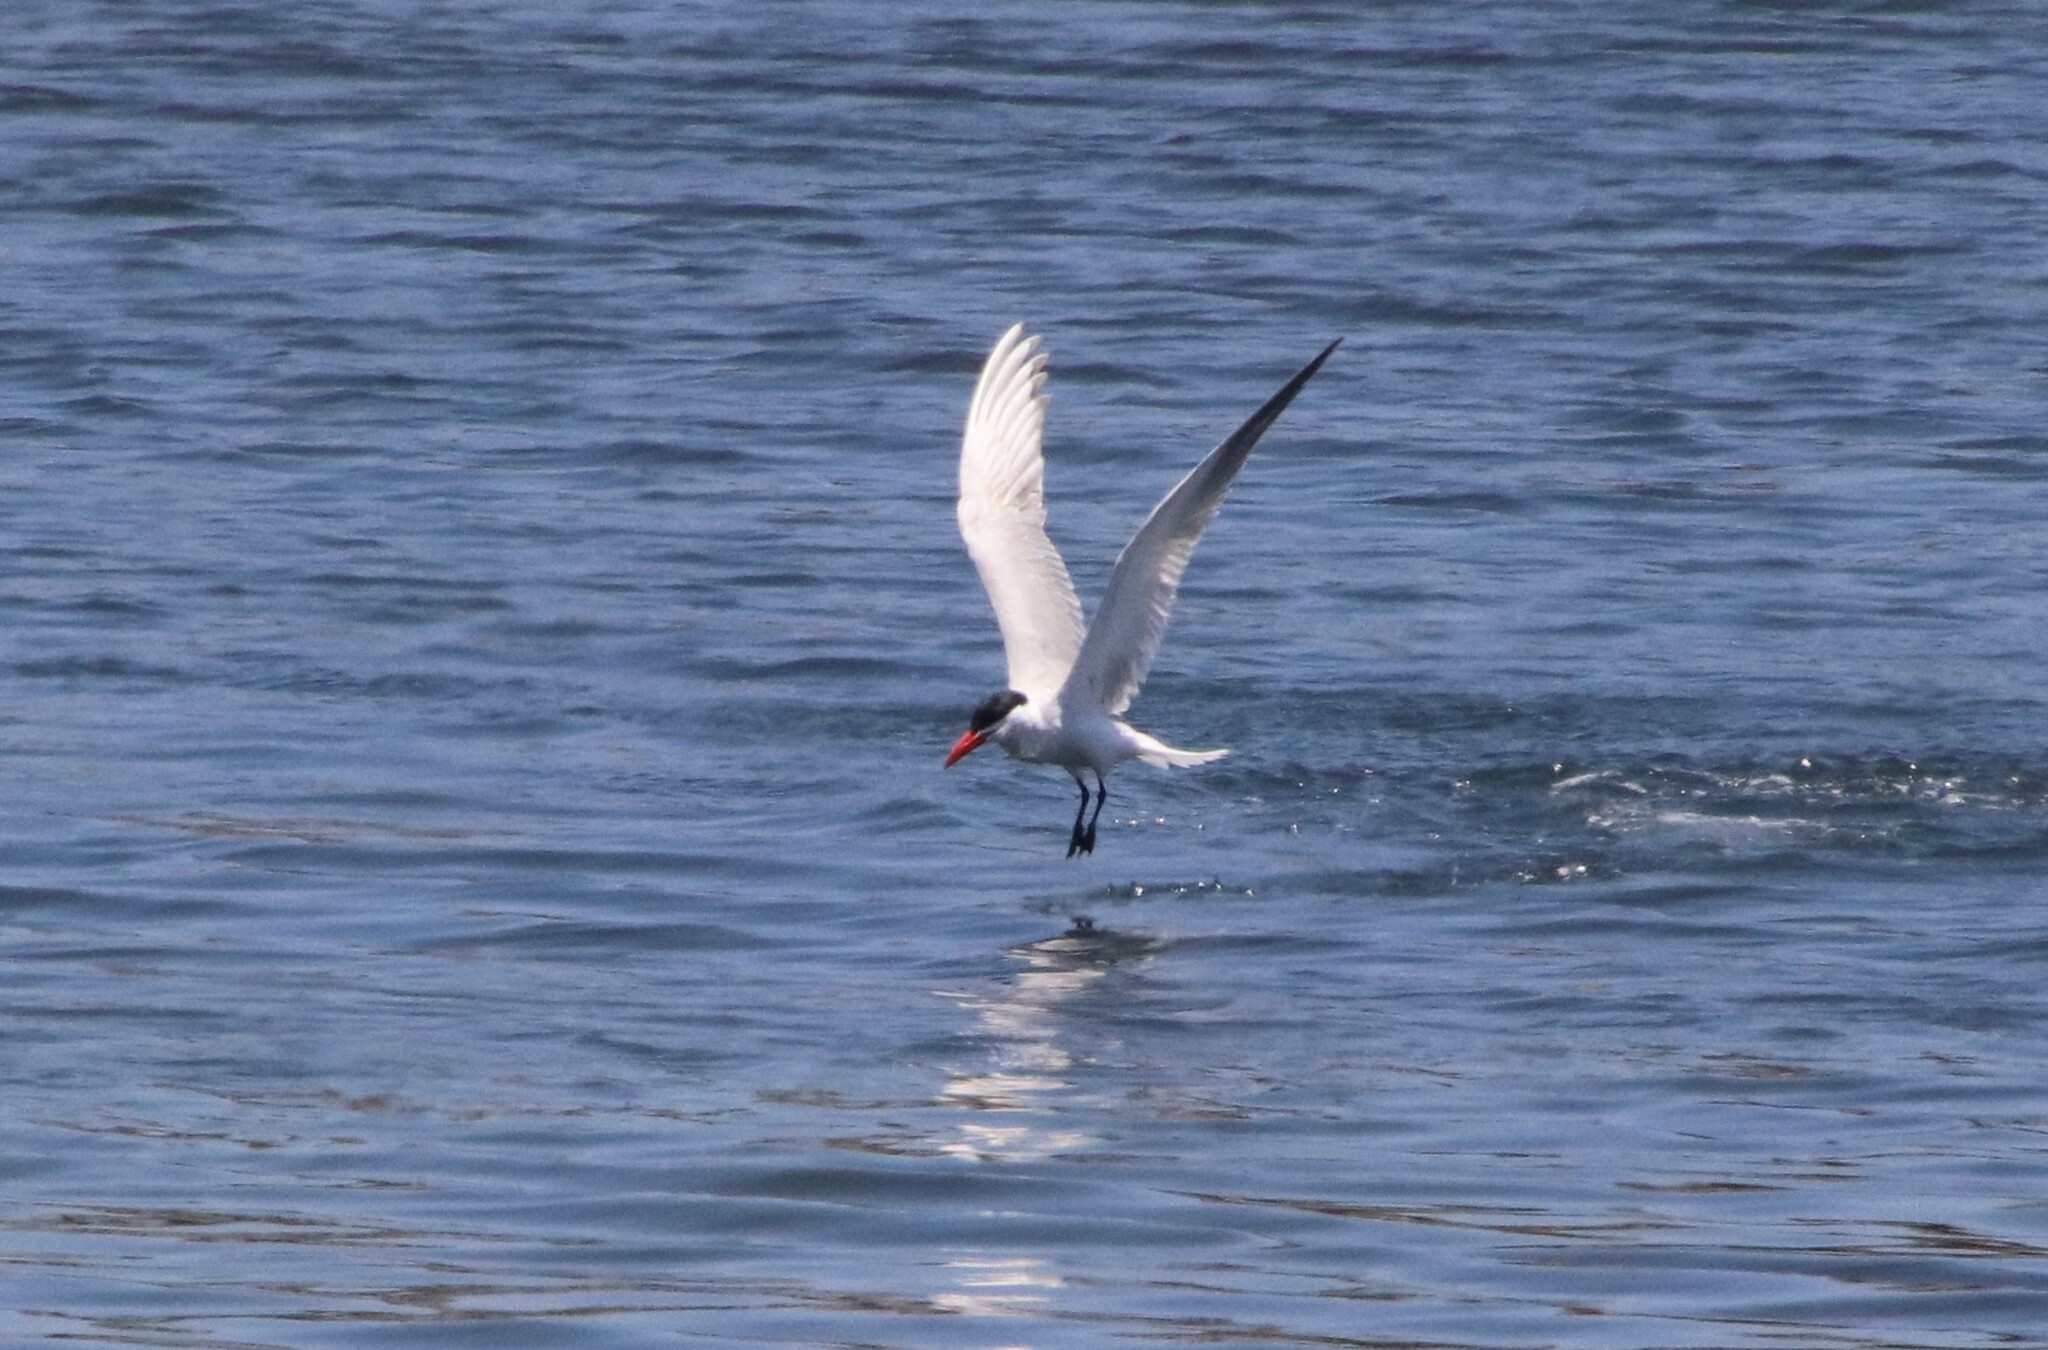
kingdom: Animalia
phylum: Chordata
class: Aves
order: Charadriiformes
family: Laridae
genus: Hydroprogne
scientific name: Hydroprogne caspia
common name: Caspian tern
